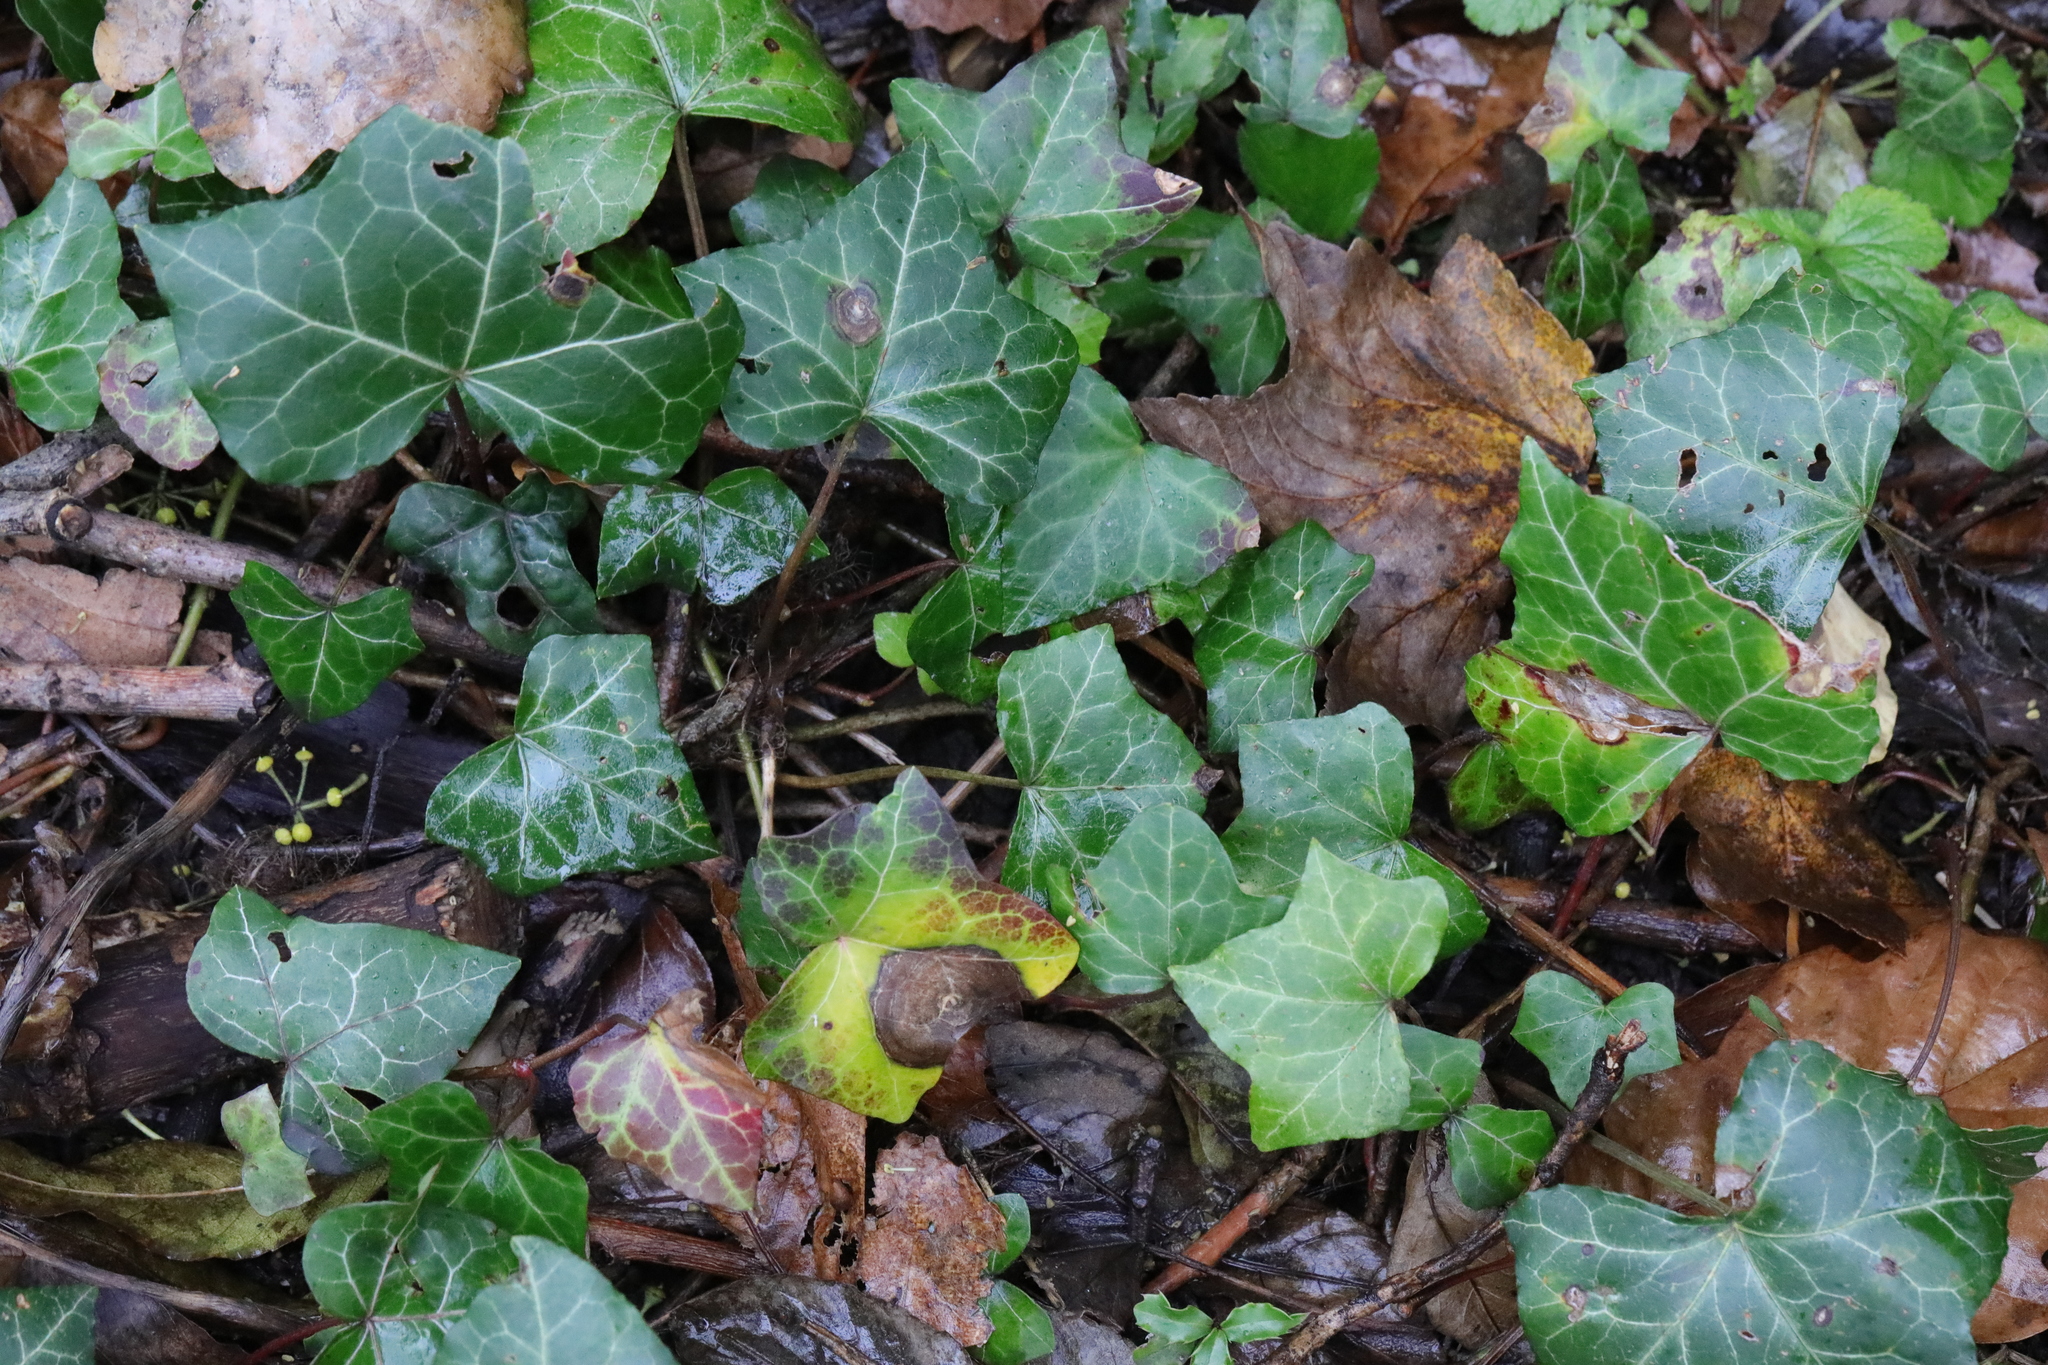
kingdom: Plantae
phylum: Tracheophyta
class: Magnoliopsida
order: Apiales
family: Araliaceae
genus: Hedera
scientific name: Hedera helix
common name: Ivy
